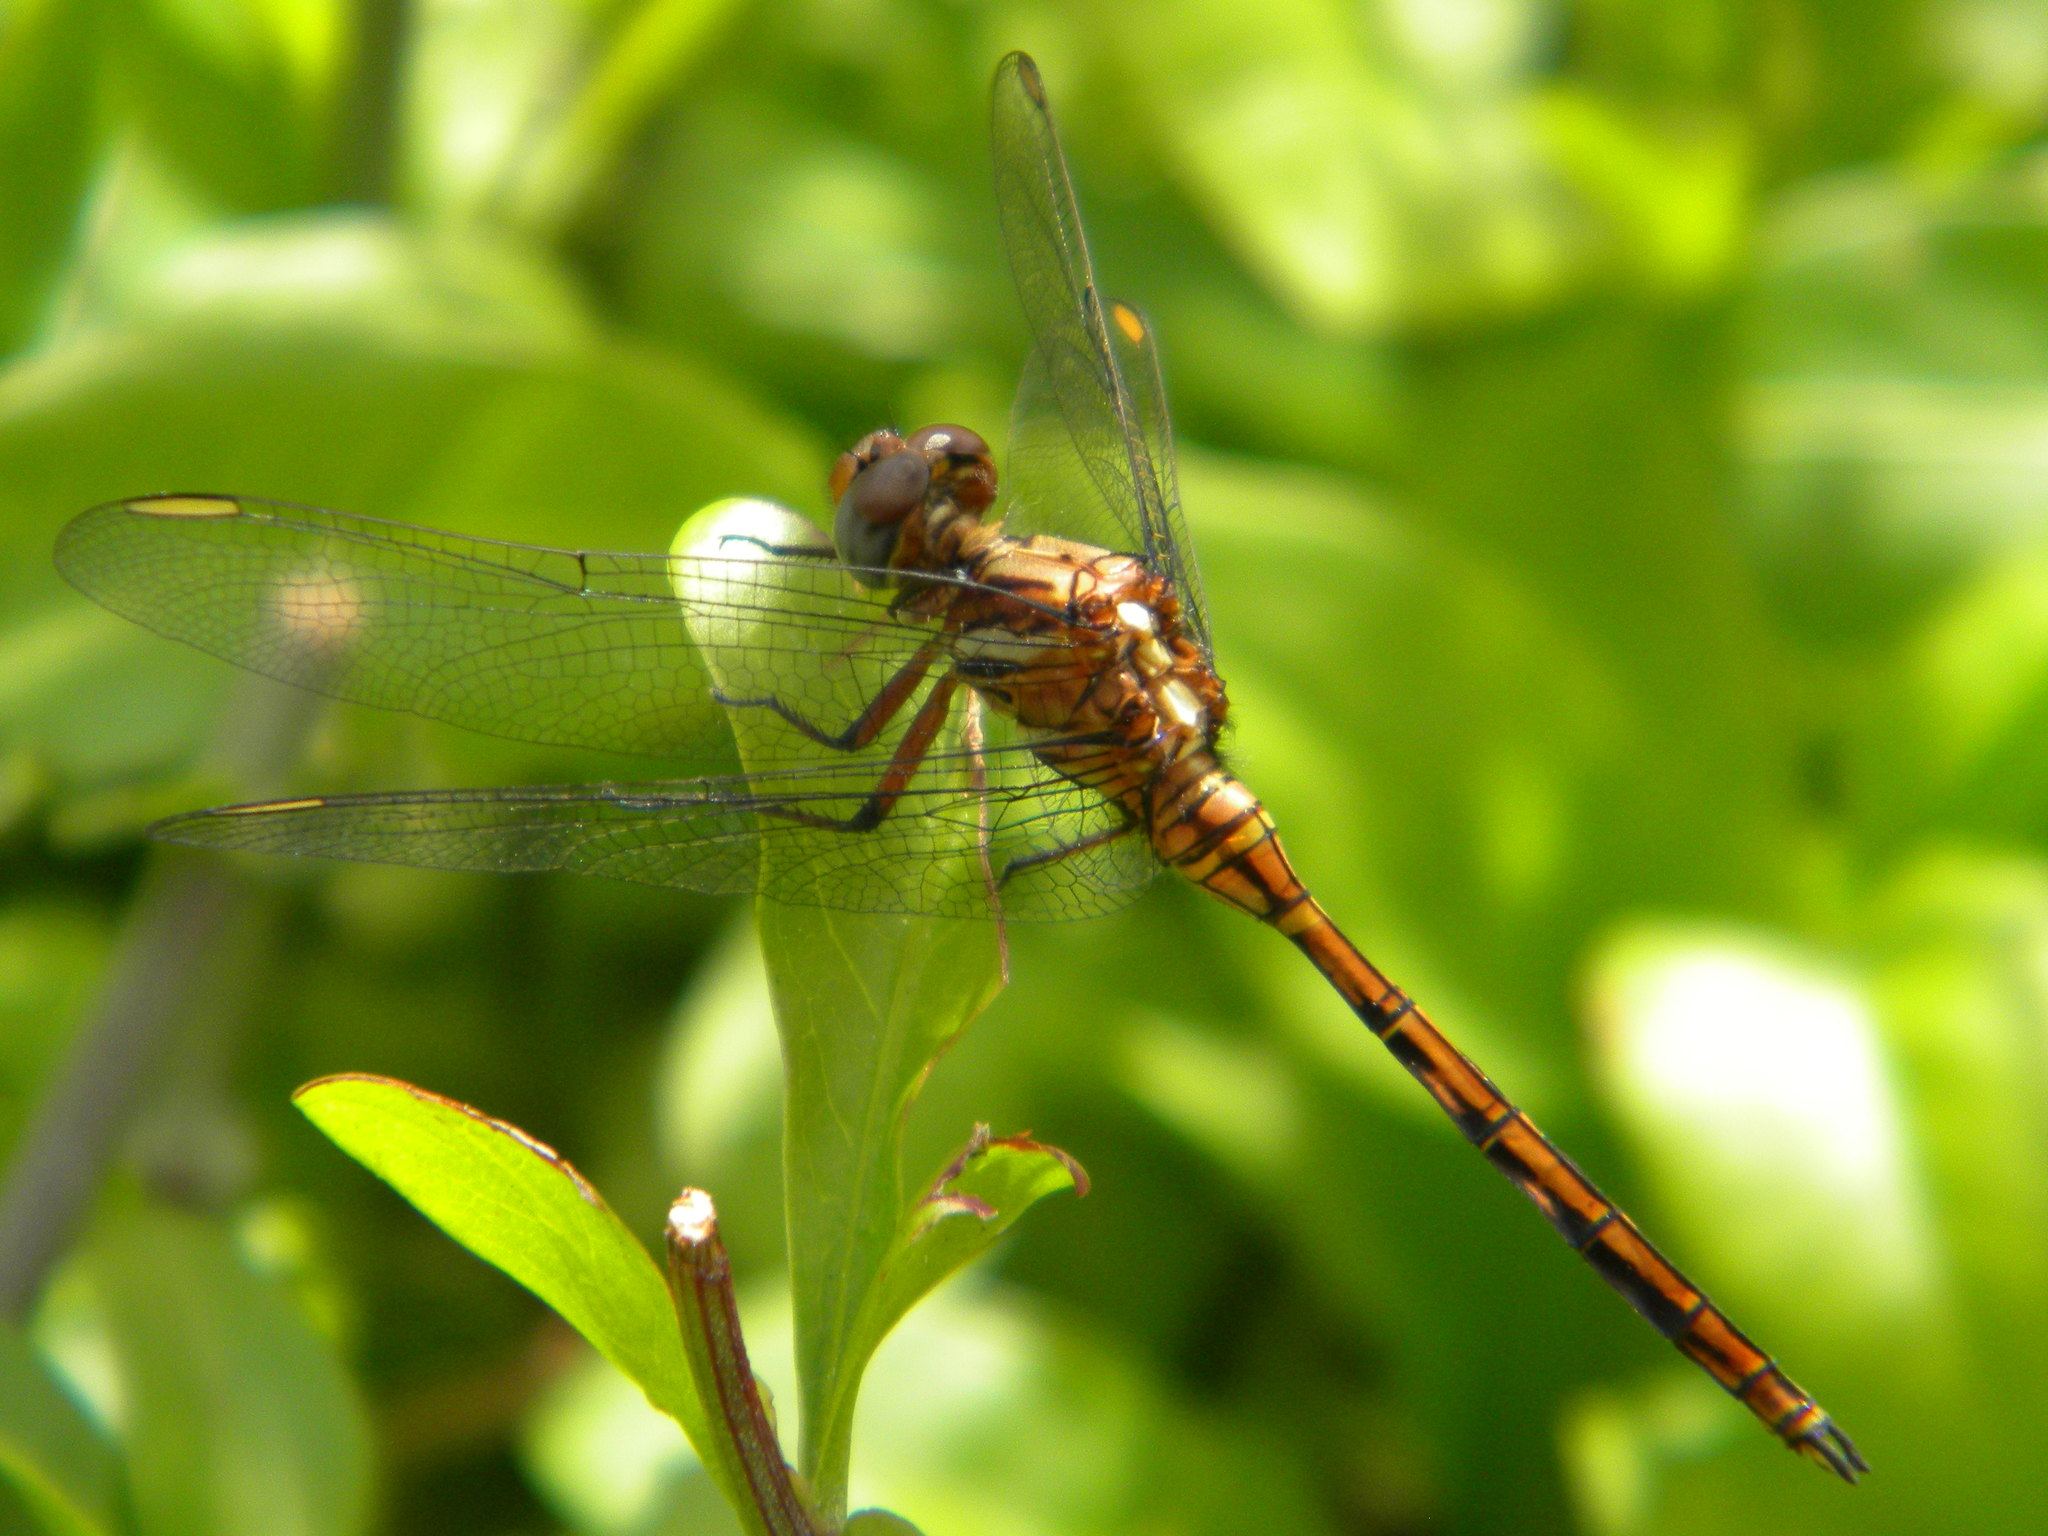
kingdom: Animalia
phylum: Arthropoda
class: Insecta
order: Odonata
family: Libellulidae
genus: Orthetrum
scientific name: Orthetrum julia
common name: Julia skimmer
